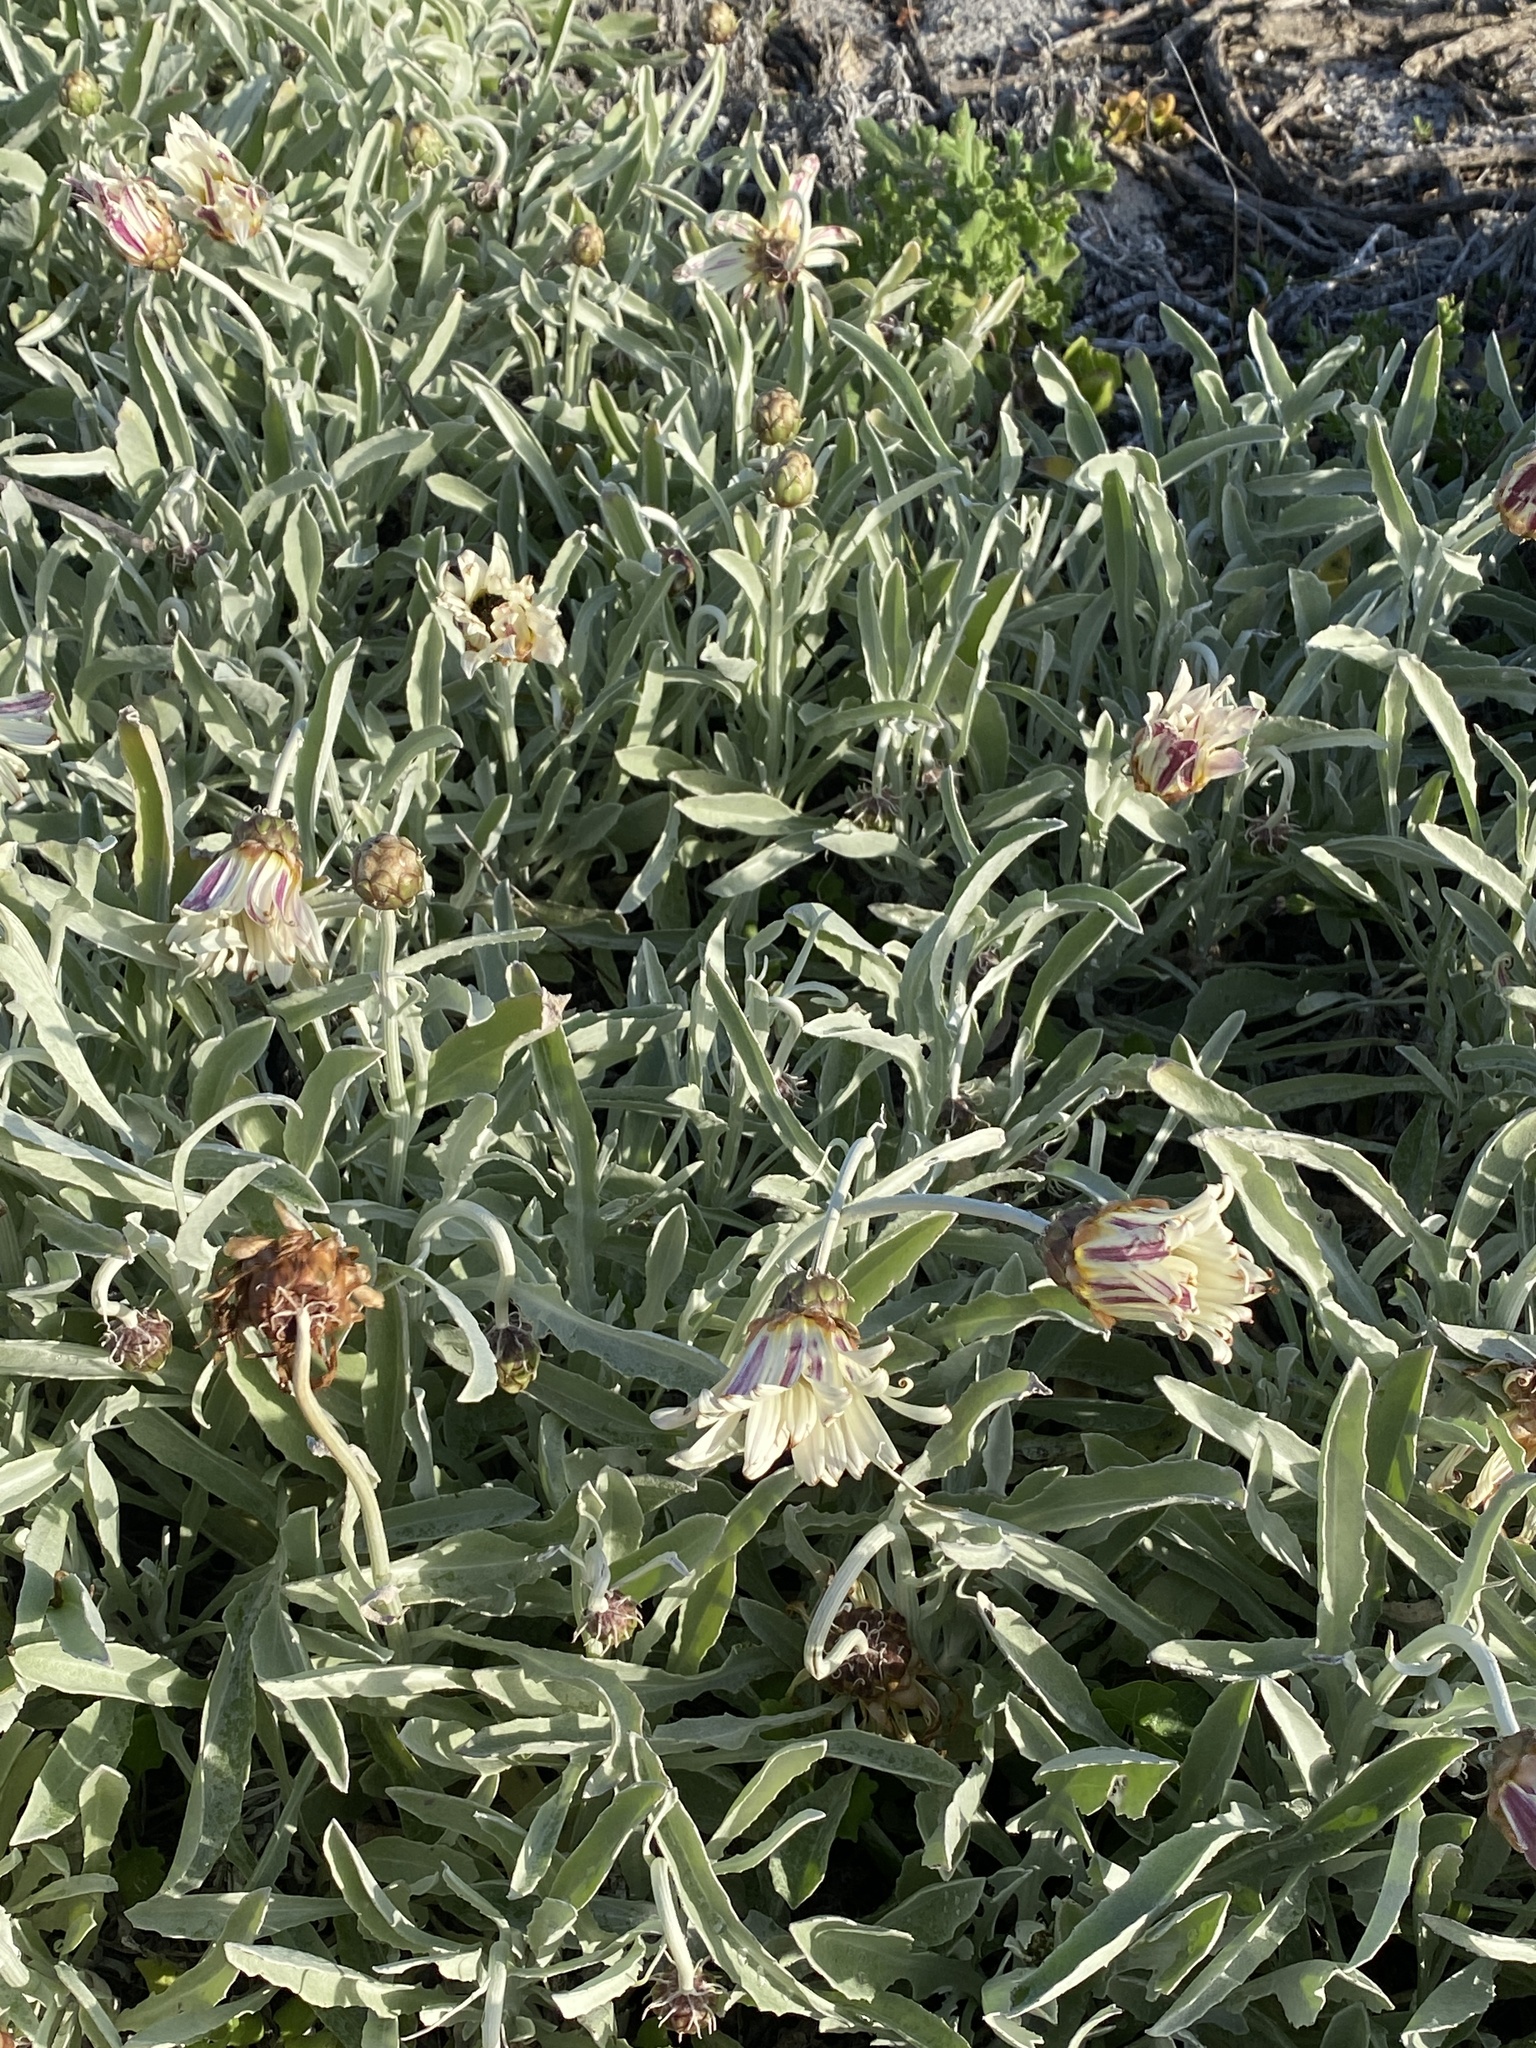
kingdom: Plantae
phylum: Tracheophyta
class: Magnoliopsida
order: Asterales
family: Asteraceae
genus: Arctotis
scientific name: Arctotis stoechadifolia
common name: African daisy
